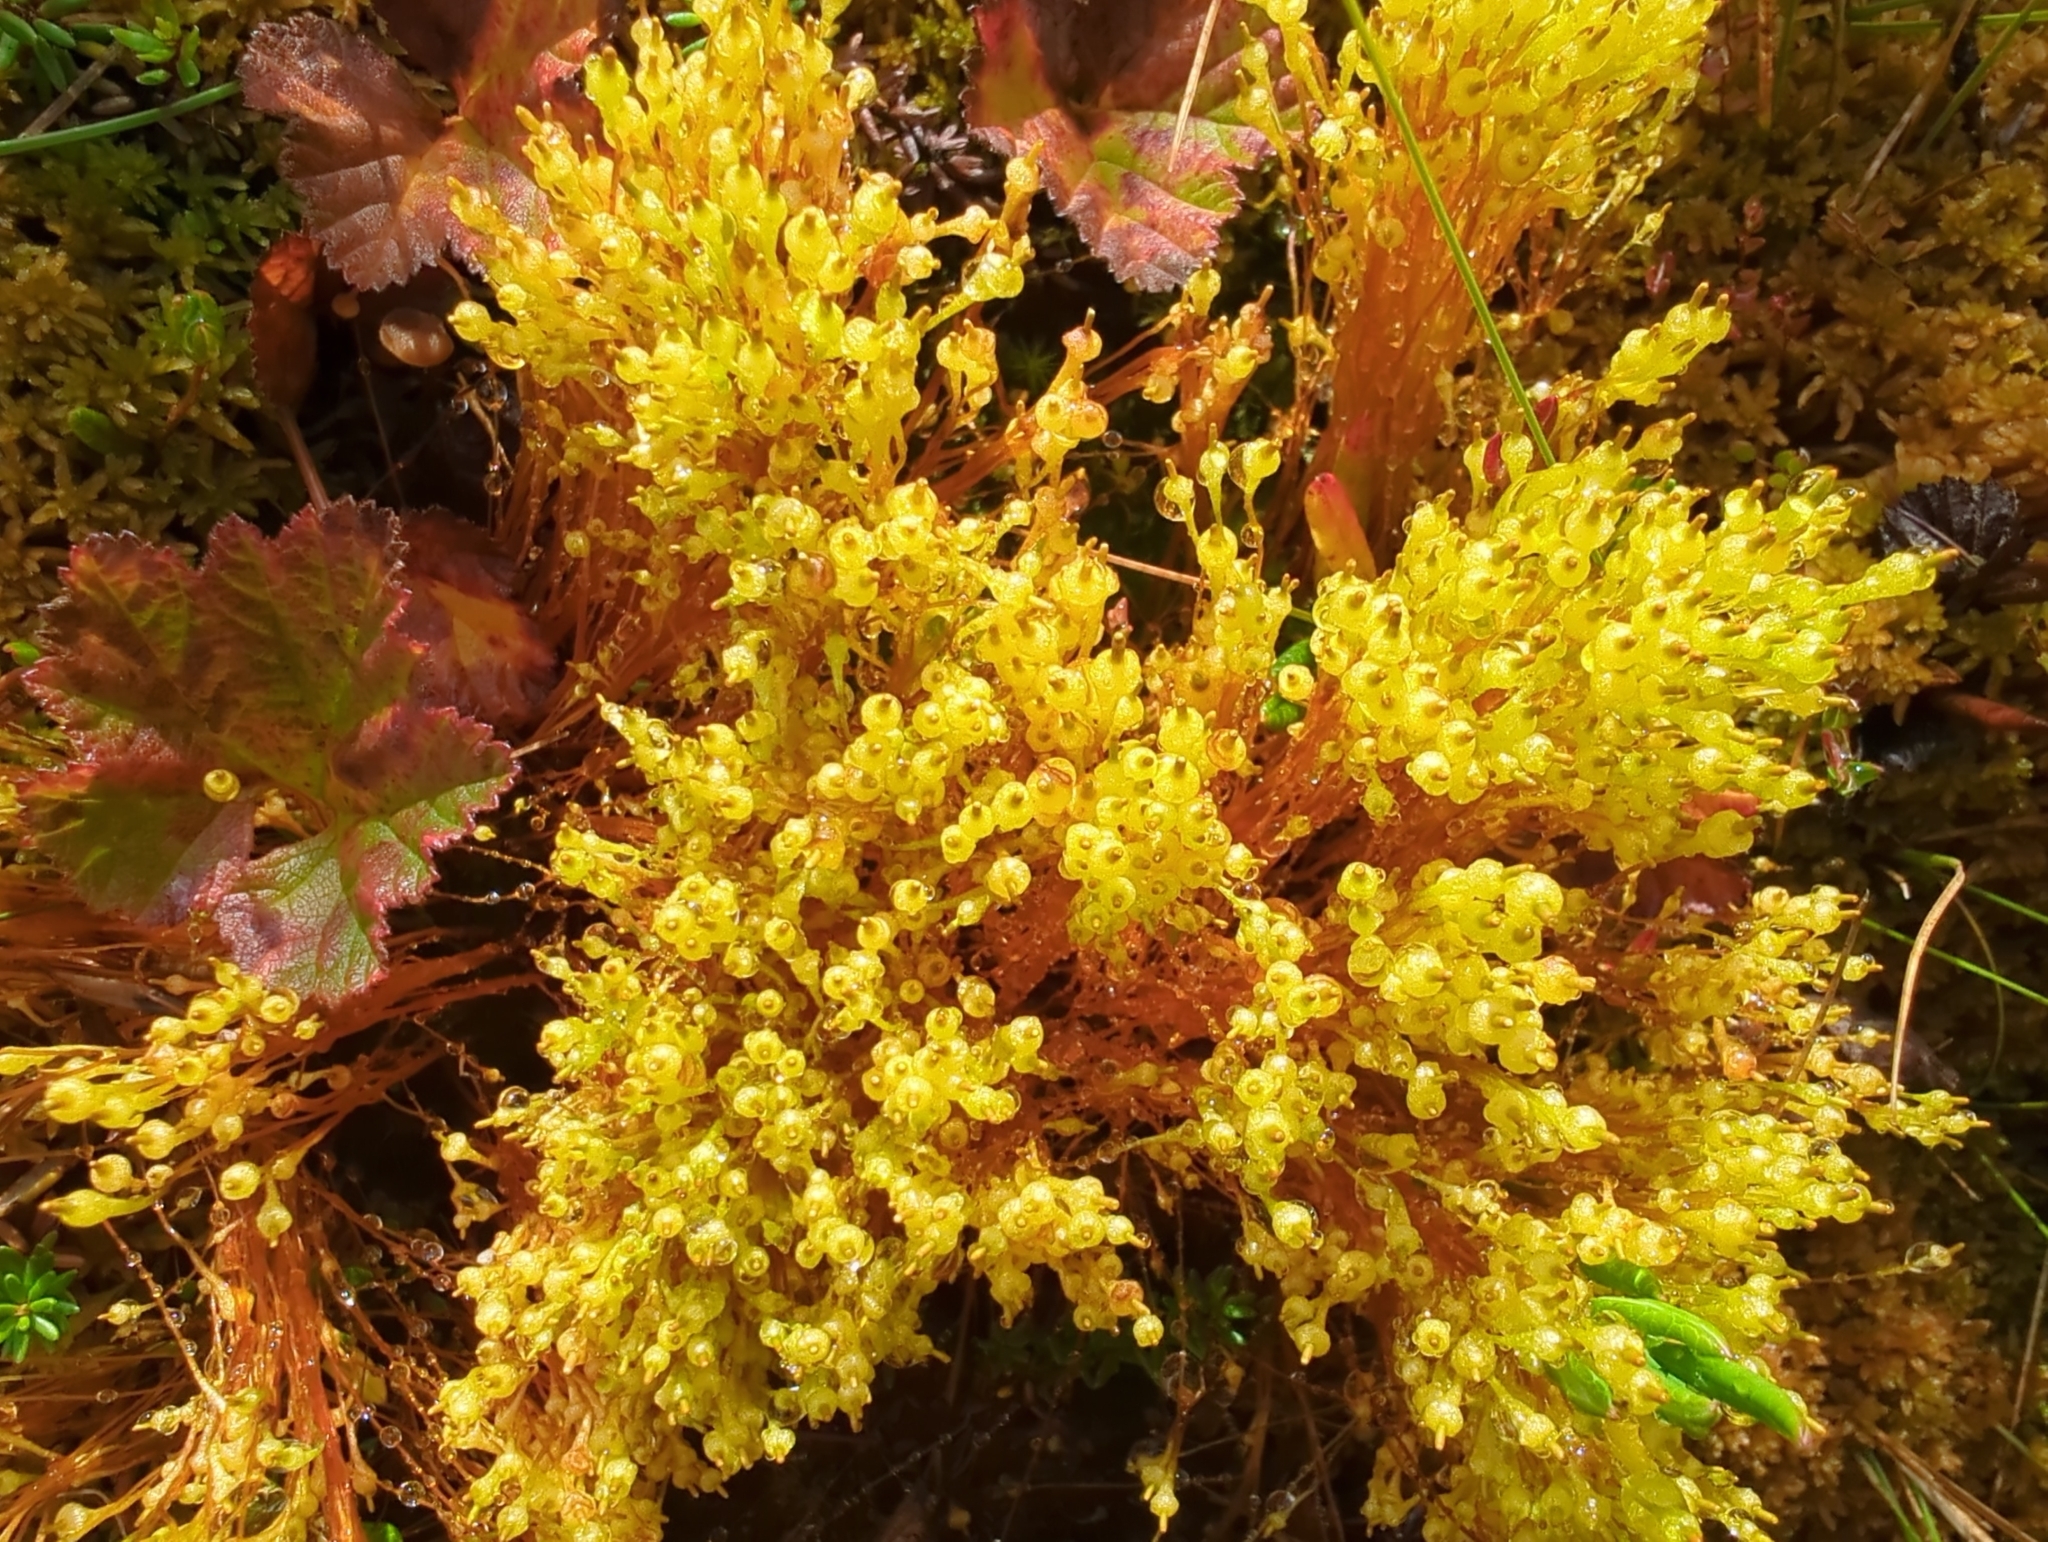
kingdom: Plantae
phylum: Bryophyta
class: Bryopsida
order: Splachnales
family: Splachnaceae
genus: Splachnum
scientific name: Splachnum ampullaceum
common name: Cruet dung moss
